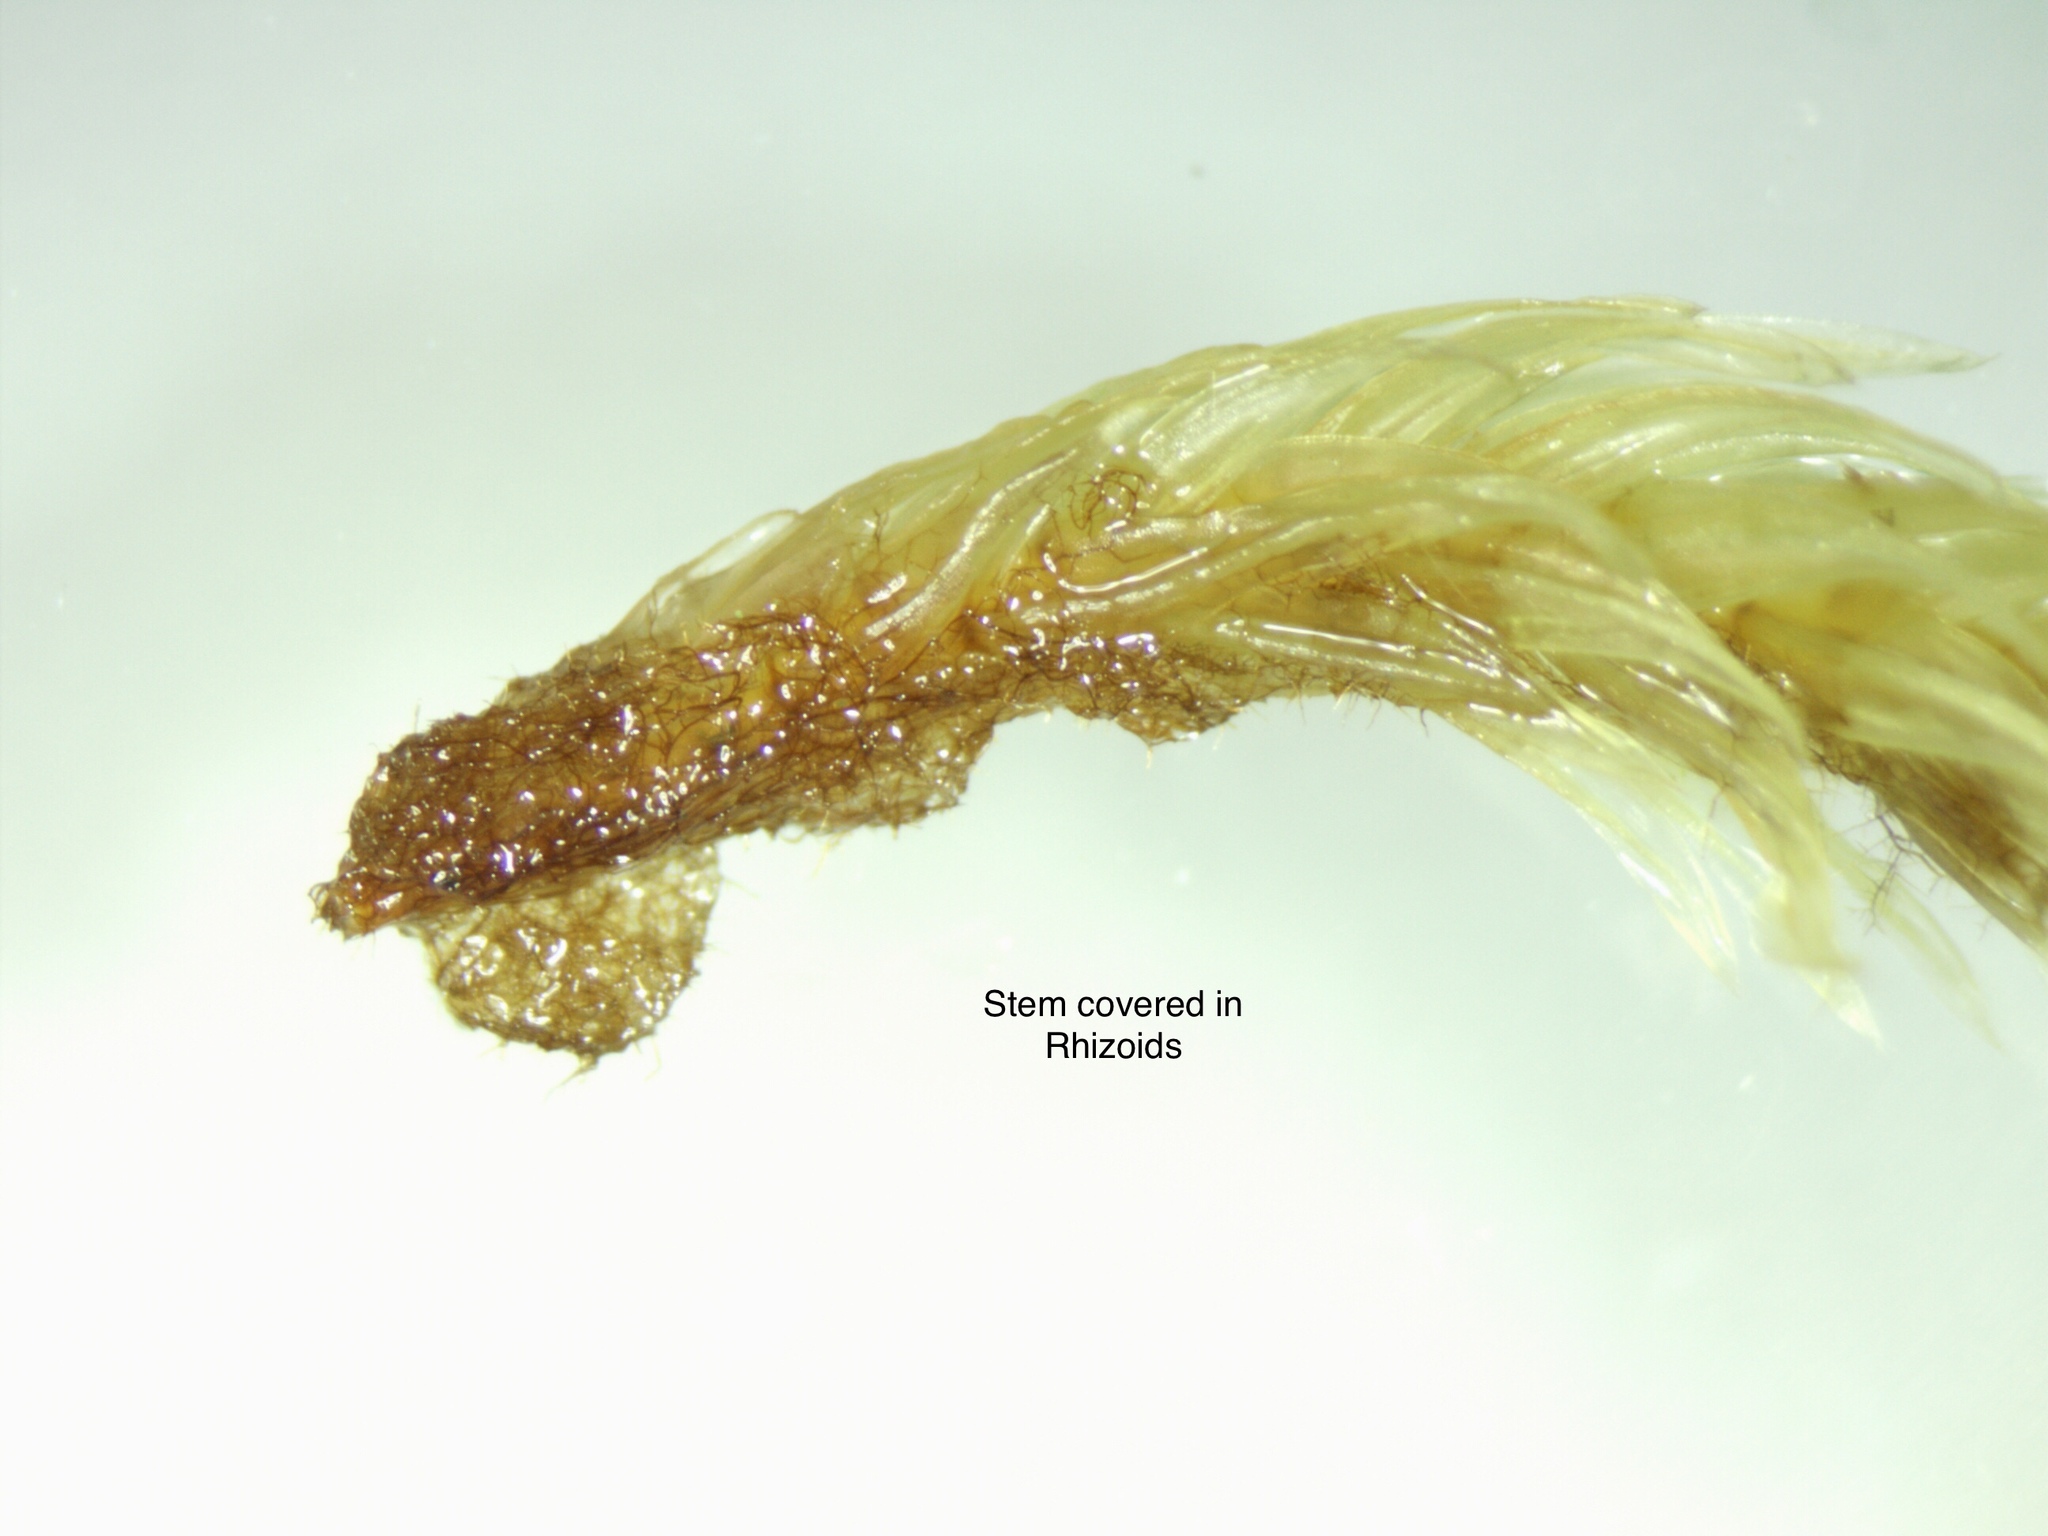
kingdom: Plantae
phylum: Bryophyta
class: Bryopsida
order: Aulacomniales
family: Aulacomniaceae
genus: Aulacomnium
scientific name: Aulacomnium palustre
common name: Bog groove-moss
